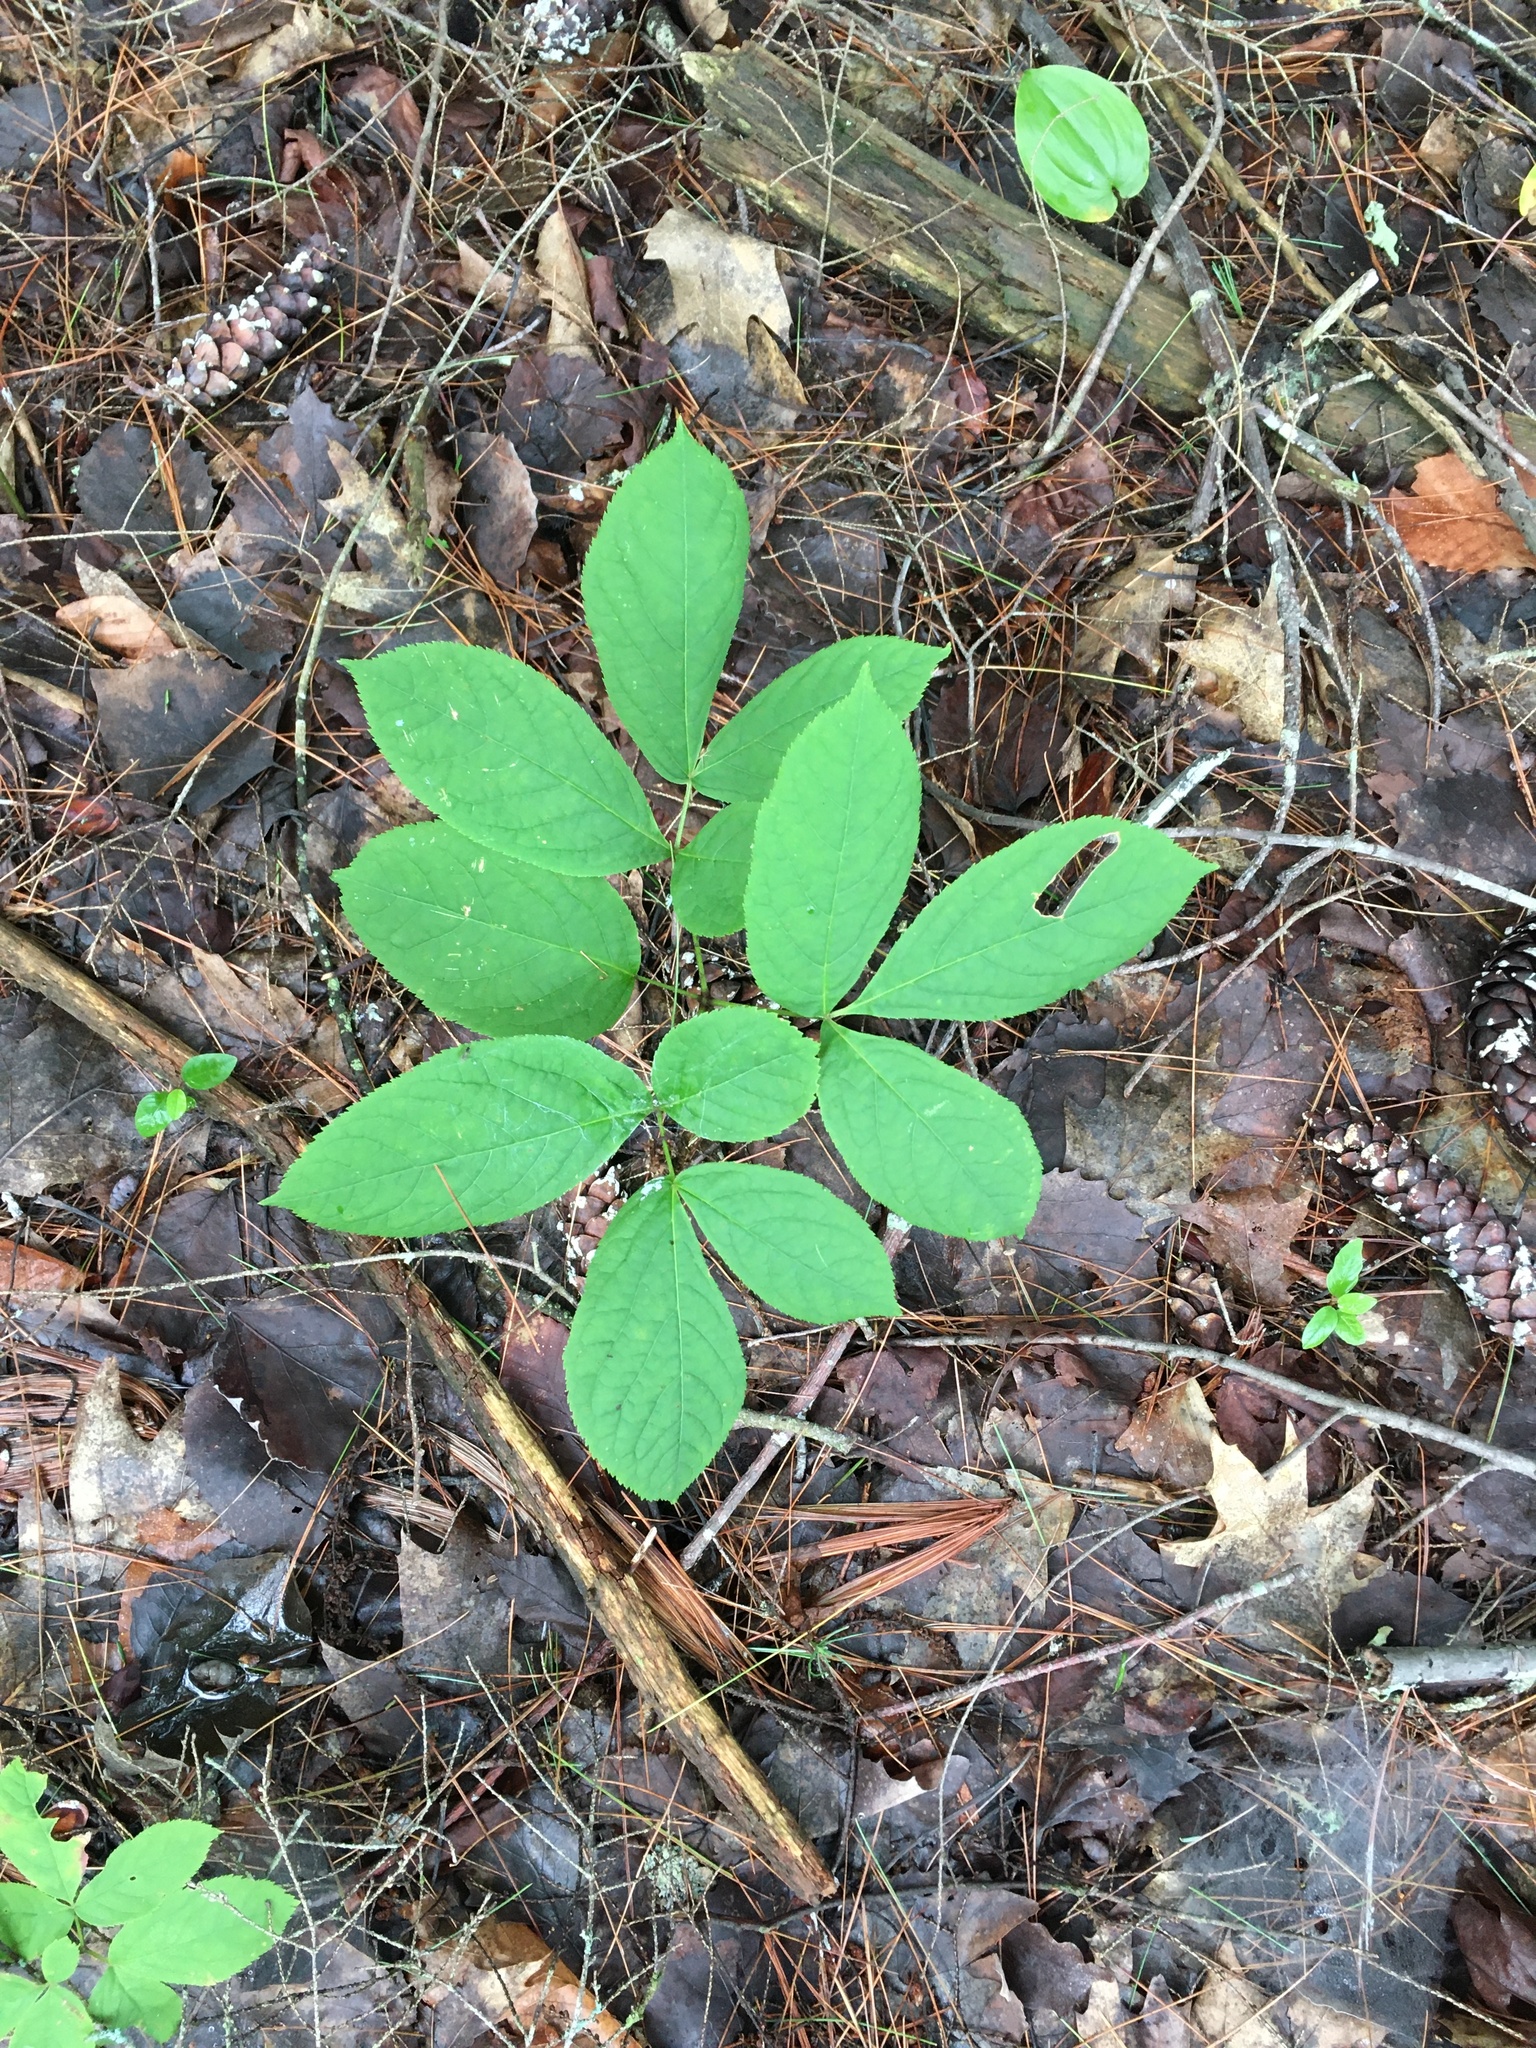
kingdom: Plantae
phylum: Tracheophyta
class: Magnoliopsida
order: Apiales
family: Araliaceae
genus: Aralia
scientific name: Aralia nudicaulis
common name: Wild sarsaparilla
